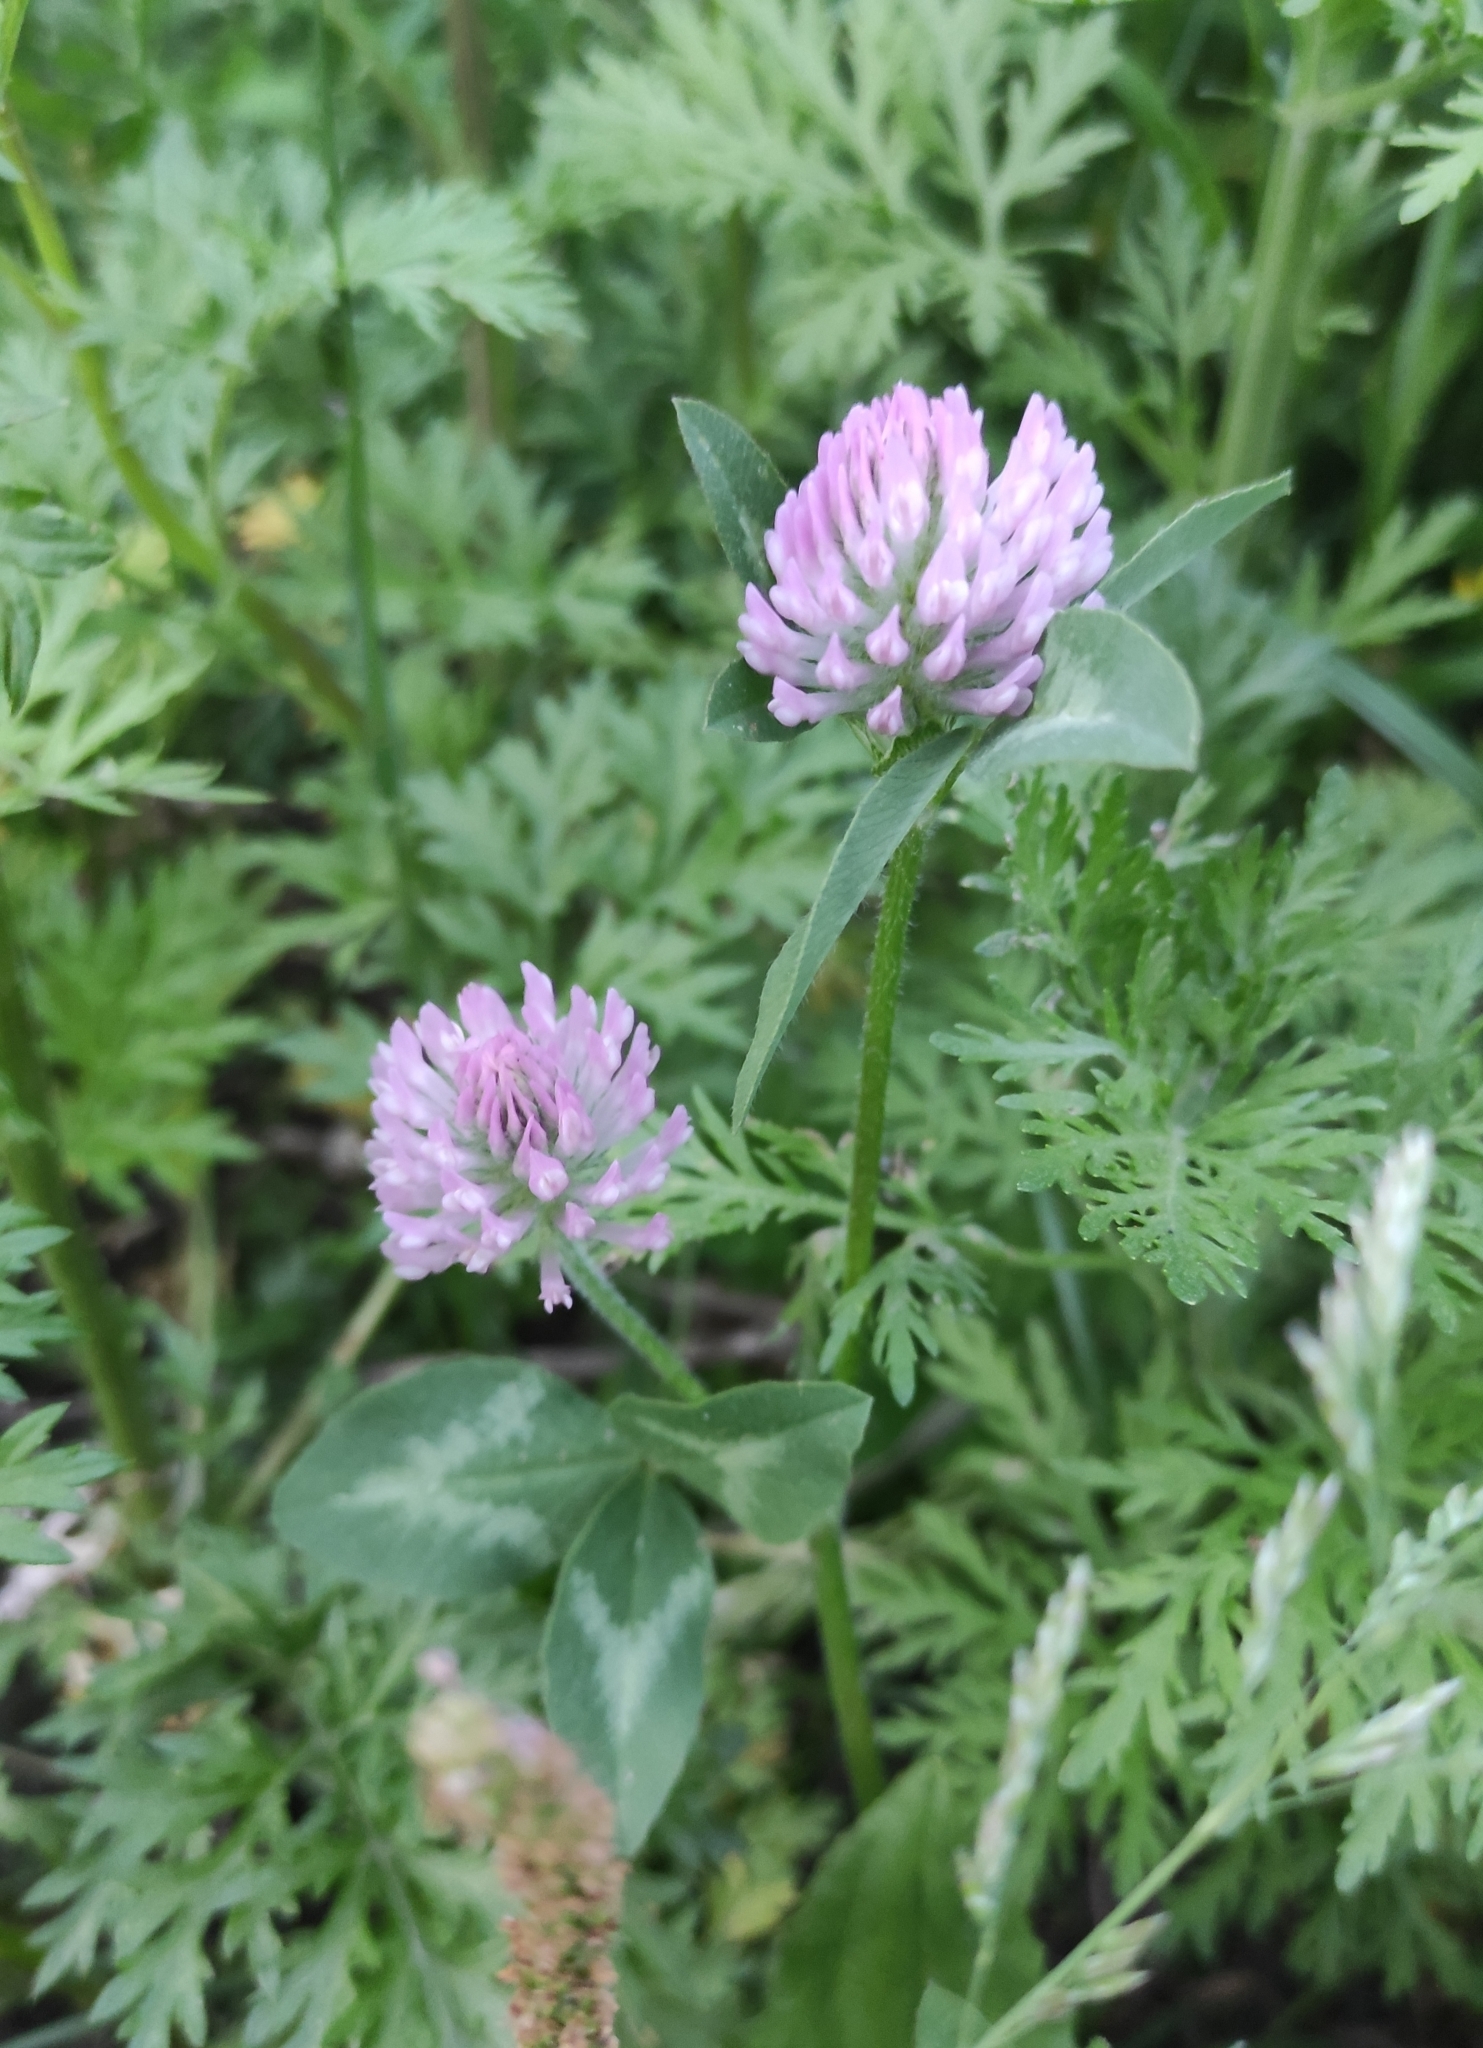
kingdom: Plantae
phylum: Tracheophyta
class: Magnoliopsida
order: Fabales
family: Fabaceae
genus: Trifolium
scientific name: Trifolium pratense
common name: Red clover
